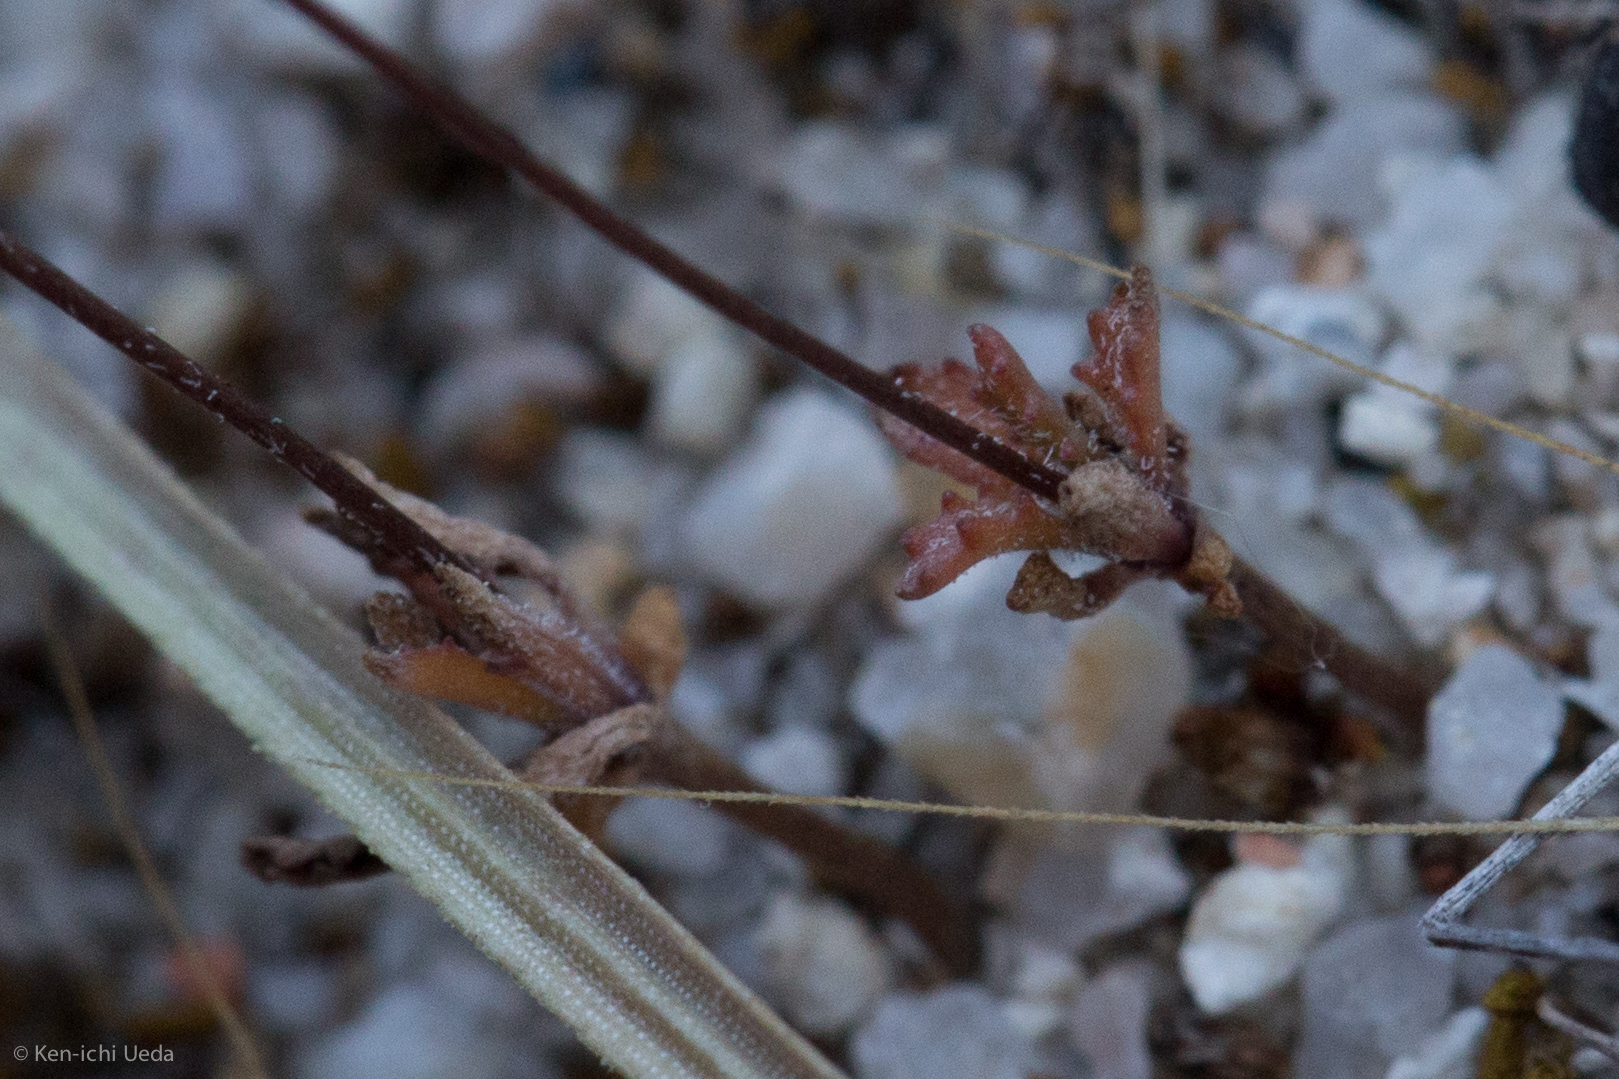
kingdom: Plantae
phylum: Tracheophyta
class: Magnoliopsida
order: Asterales
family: Campanulaceae
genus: Nemacladus
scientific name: Nemacladus secundiflorus
